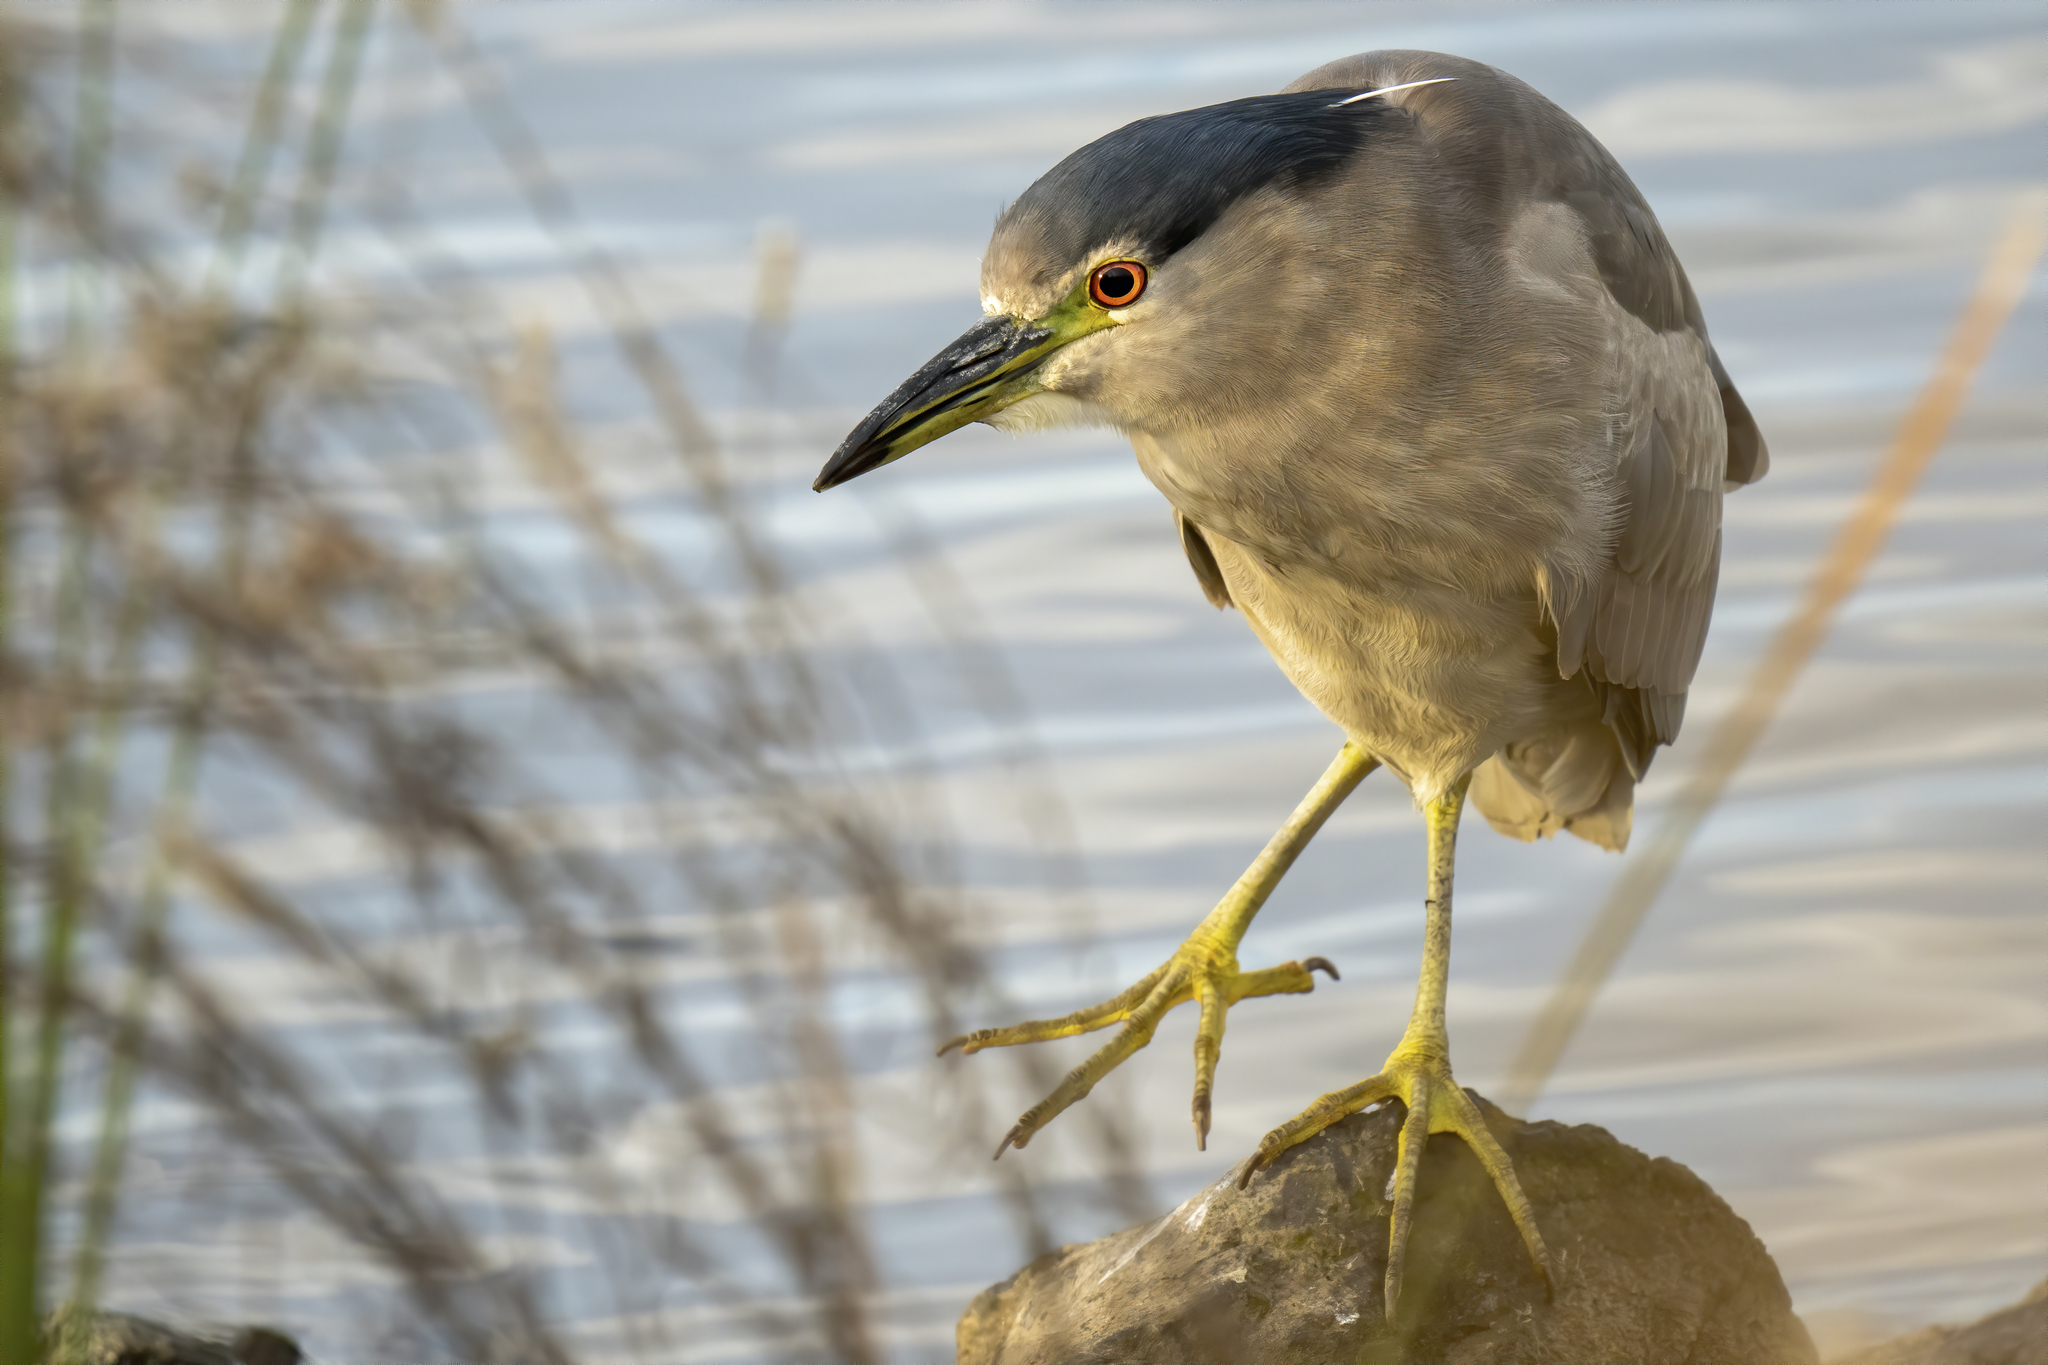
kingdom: Animalia
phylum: Chordata
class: Aves
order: Pelecaniformes
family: Ardeidae
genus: Nycticorax
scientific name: Nycticorax nycticorax
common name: Black-crowned night heron
